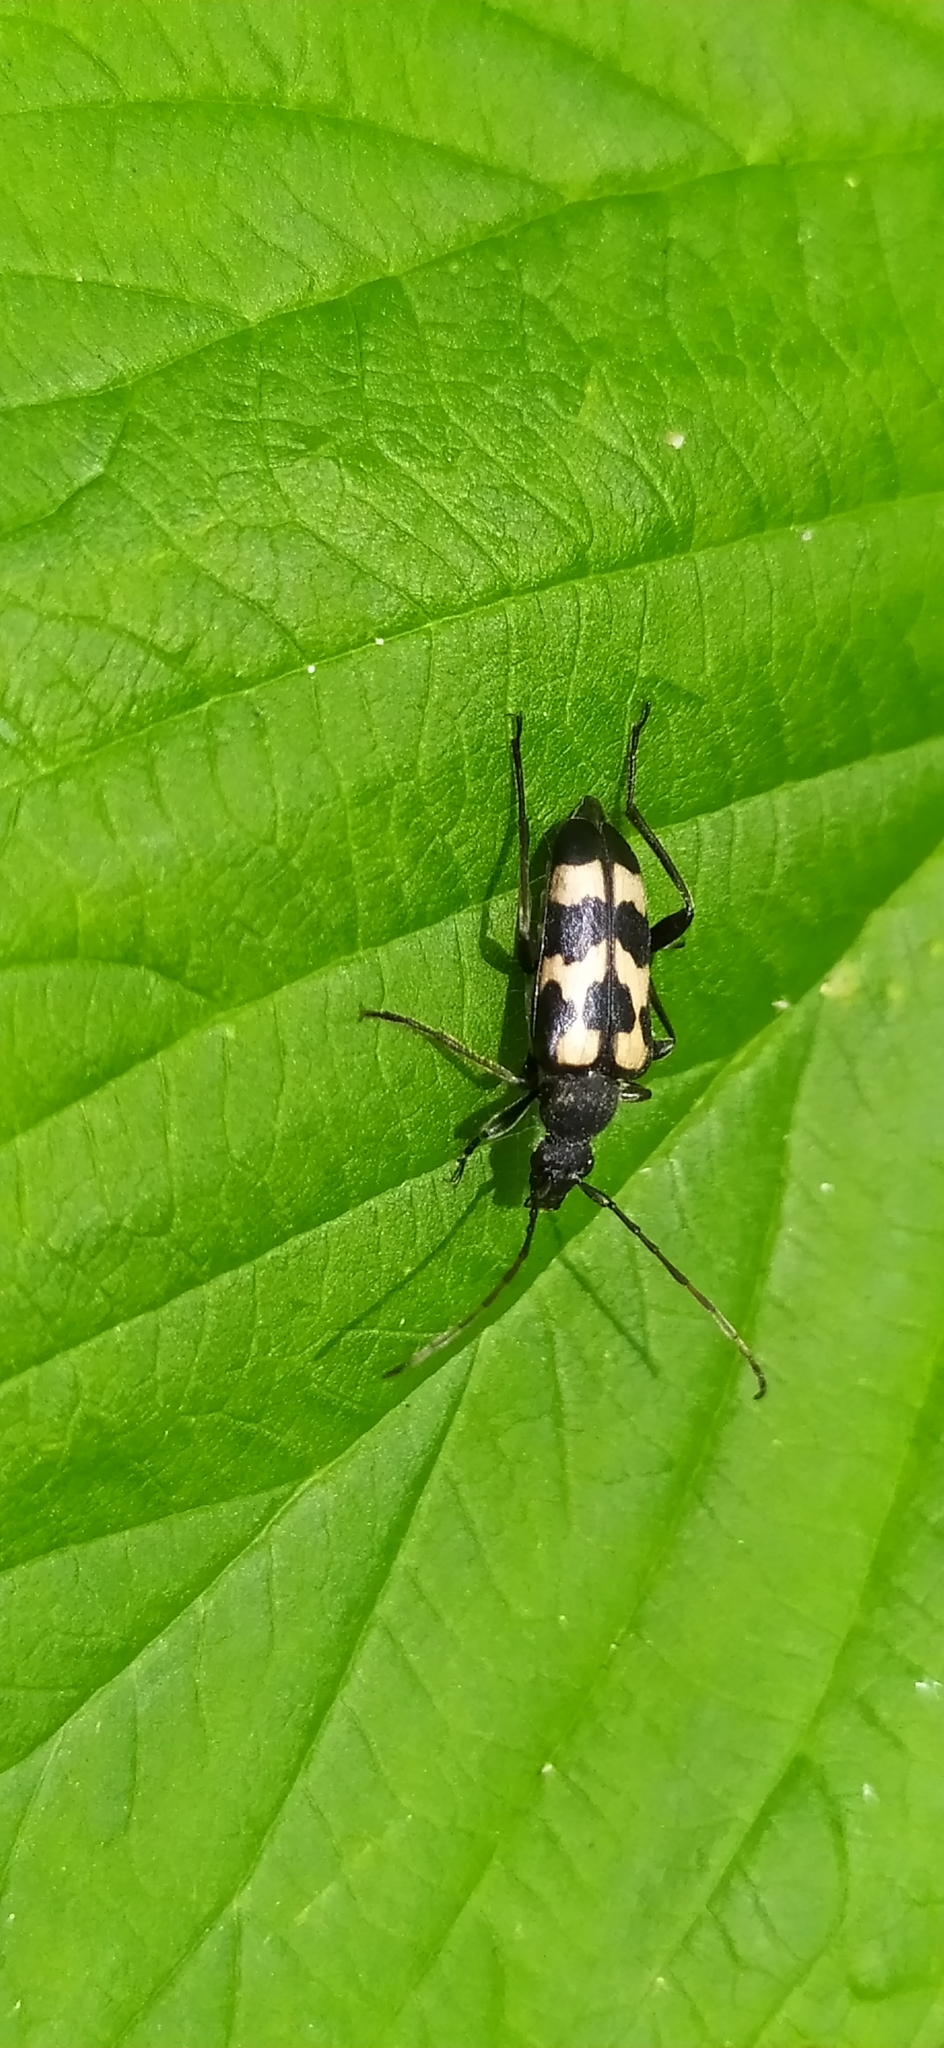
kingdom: Animalia
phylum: Arthropoda
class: Insecta
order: Coleoptera
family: Cerambycidae
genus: Judolia
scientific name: Judolia sexmaculata
